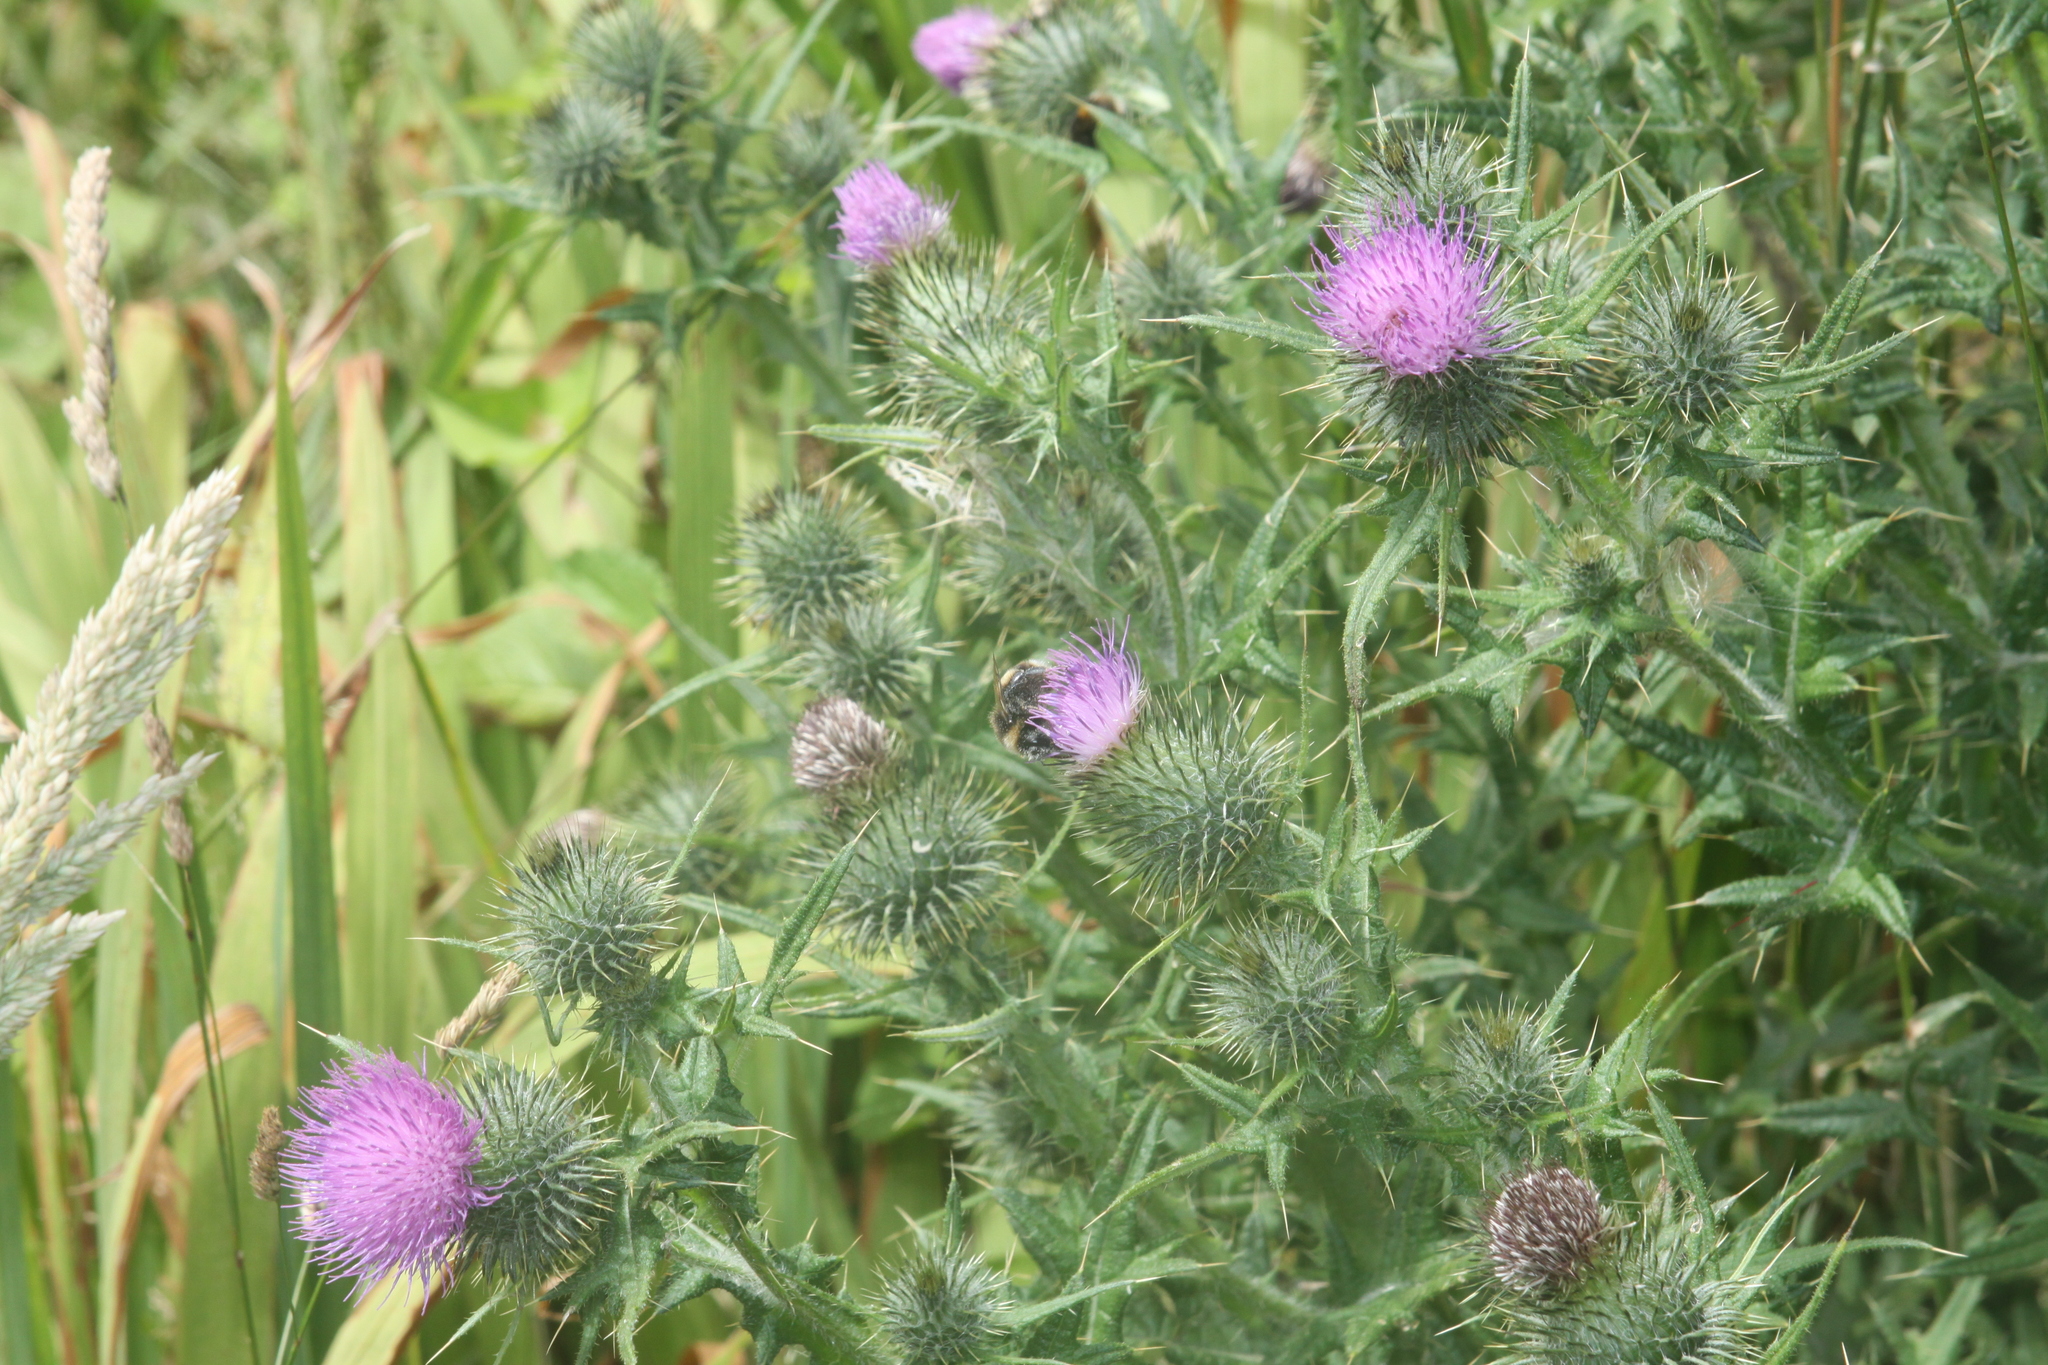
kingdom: Plantae
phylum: Tracheophyta
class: Magnoliopsida
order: Asterales
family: Asteraceae
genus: Cirsium
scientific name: Cirsium vulgare
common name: Bull thistle
